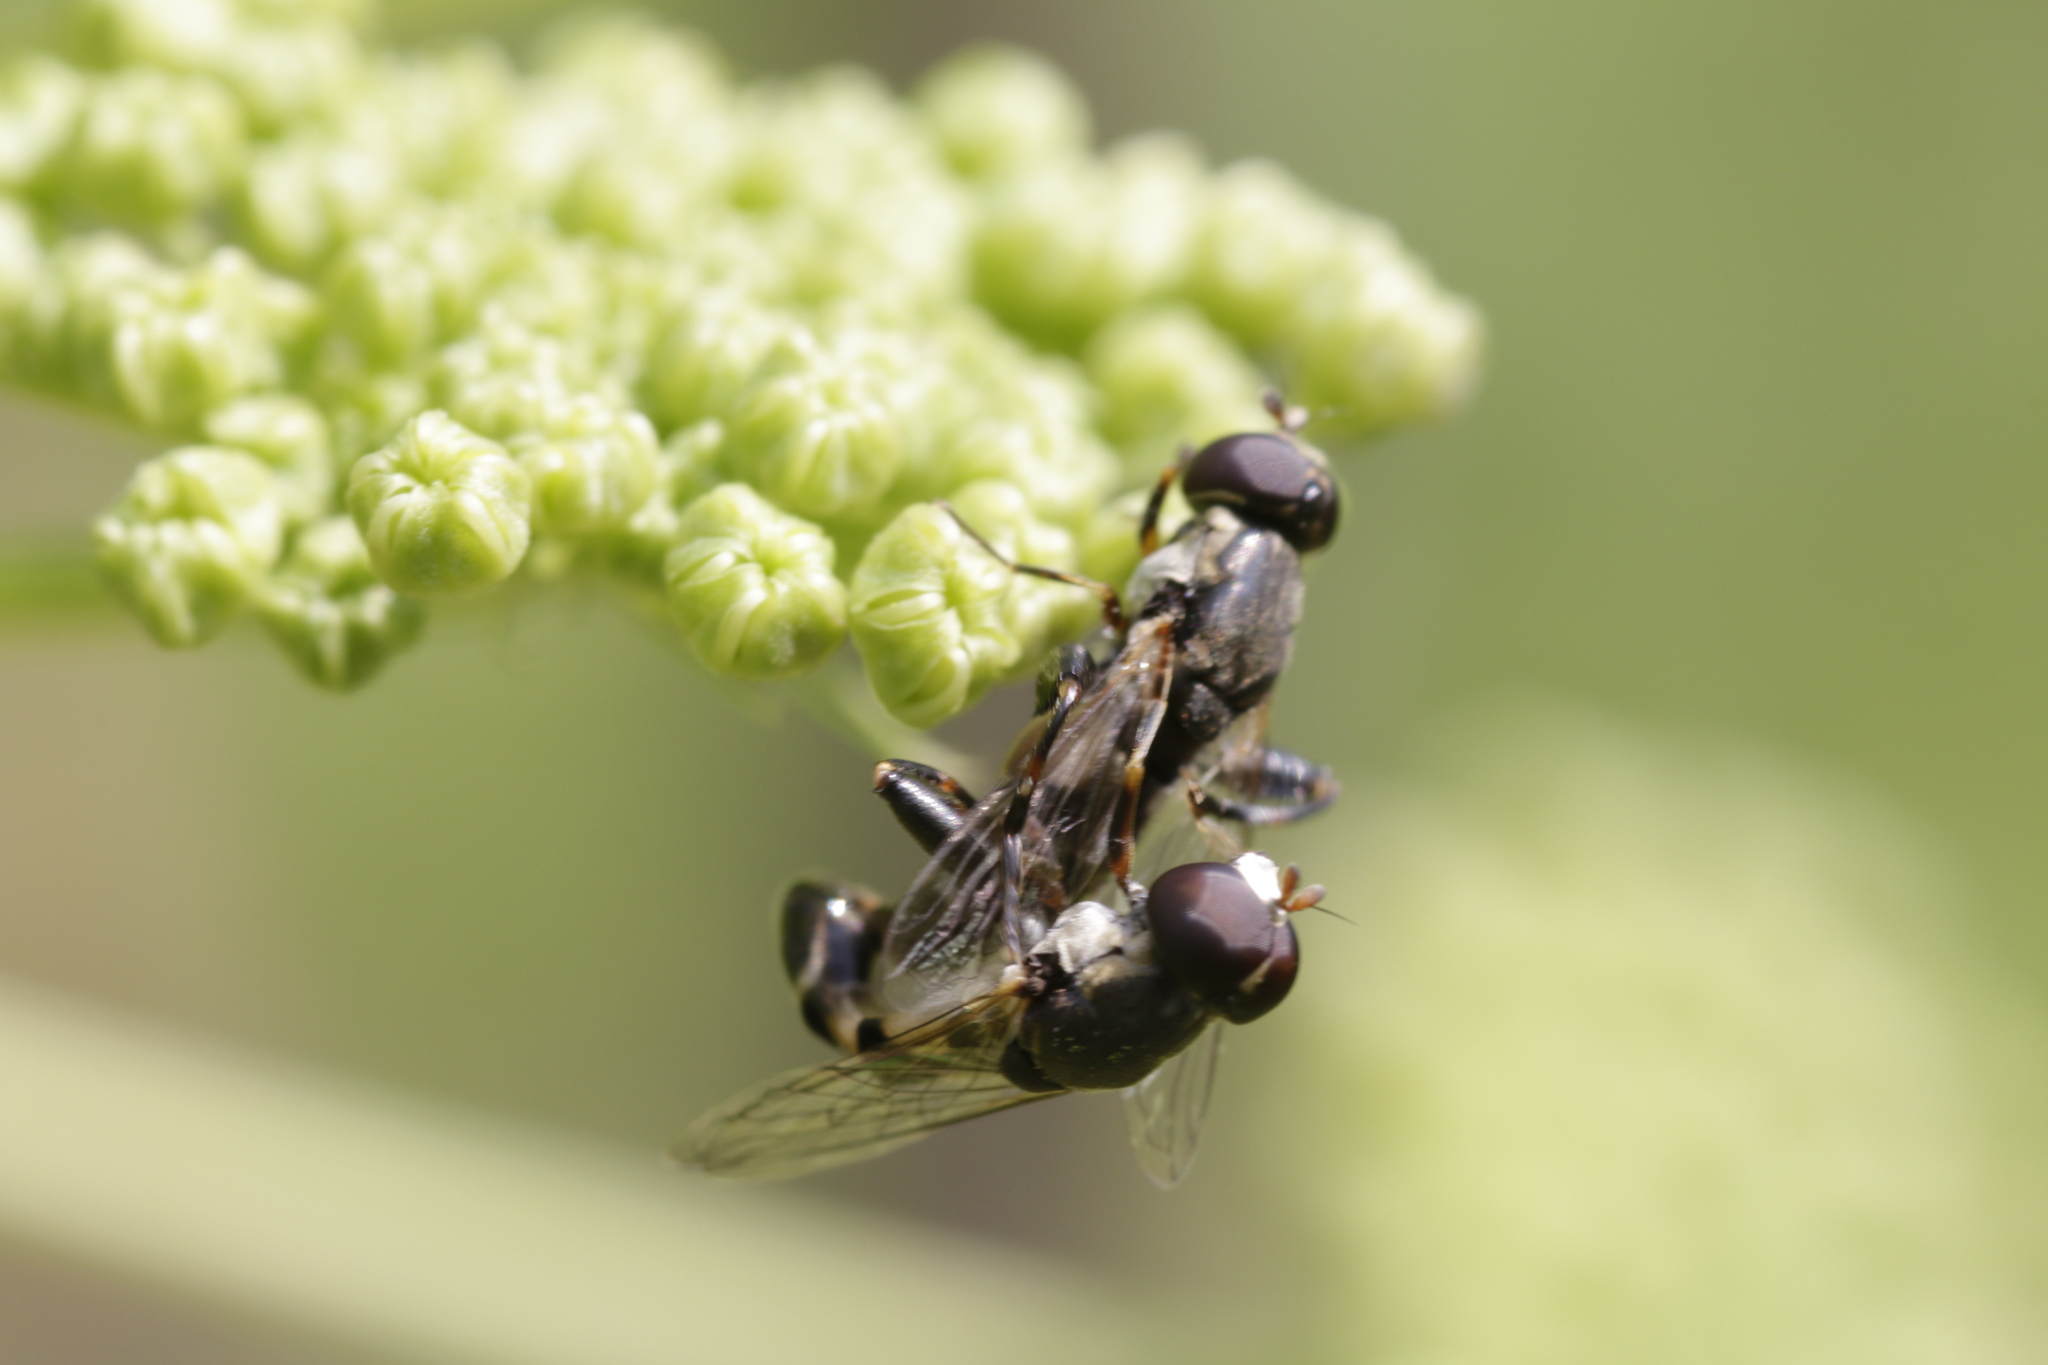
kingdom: Animalia
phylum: Arthropoda
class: Insecta
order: Diptera
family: Syrphidae
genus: Syritta
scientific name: Syritta pipiens
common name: Hover fly
